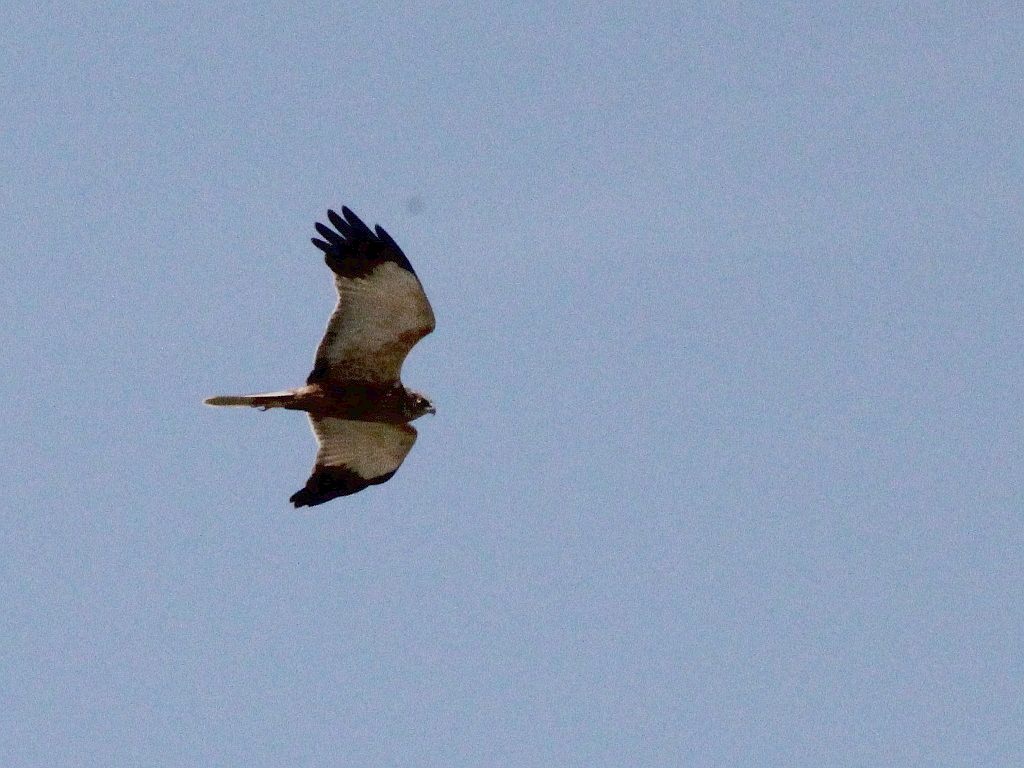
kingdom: Animalia
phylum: Chordata
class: Aves
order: Accipitriformes
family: Accipitridae
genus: Circus
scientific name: Circus aeruginosus
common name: Western marsh harrier
